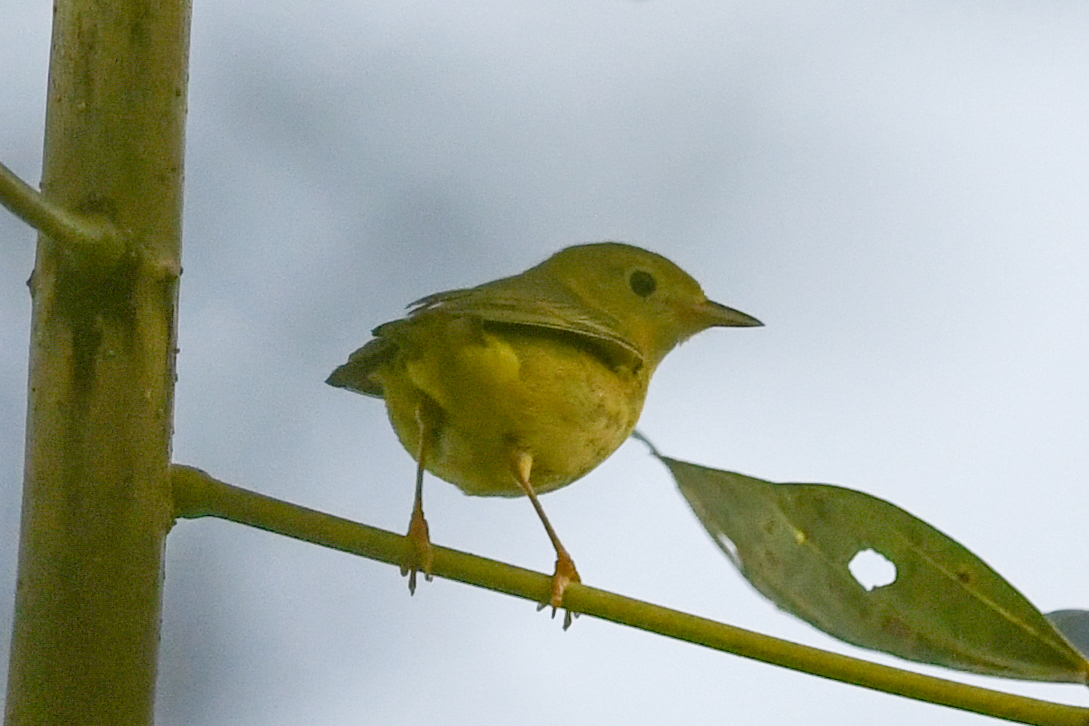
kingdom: Animalia
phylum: Chordata
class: Aves
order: Passeriformes
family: Parulidae
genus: Setophaga
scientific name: Setophaga petechia
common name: Yellow warbler
